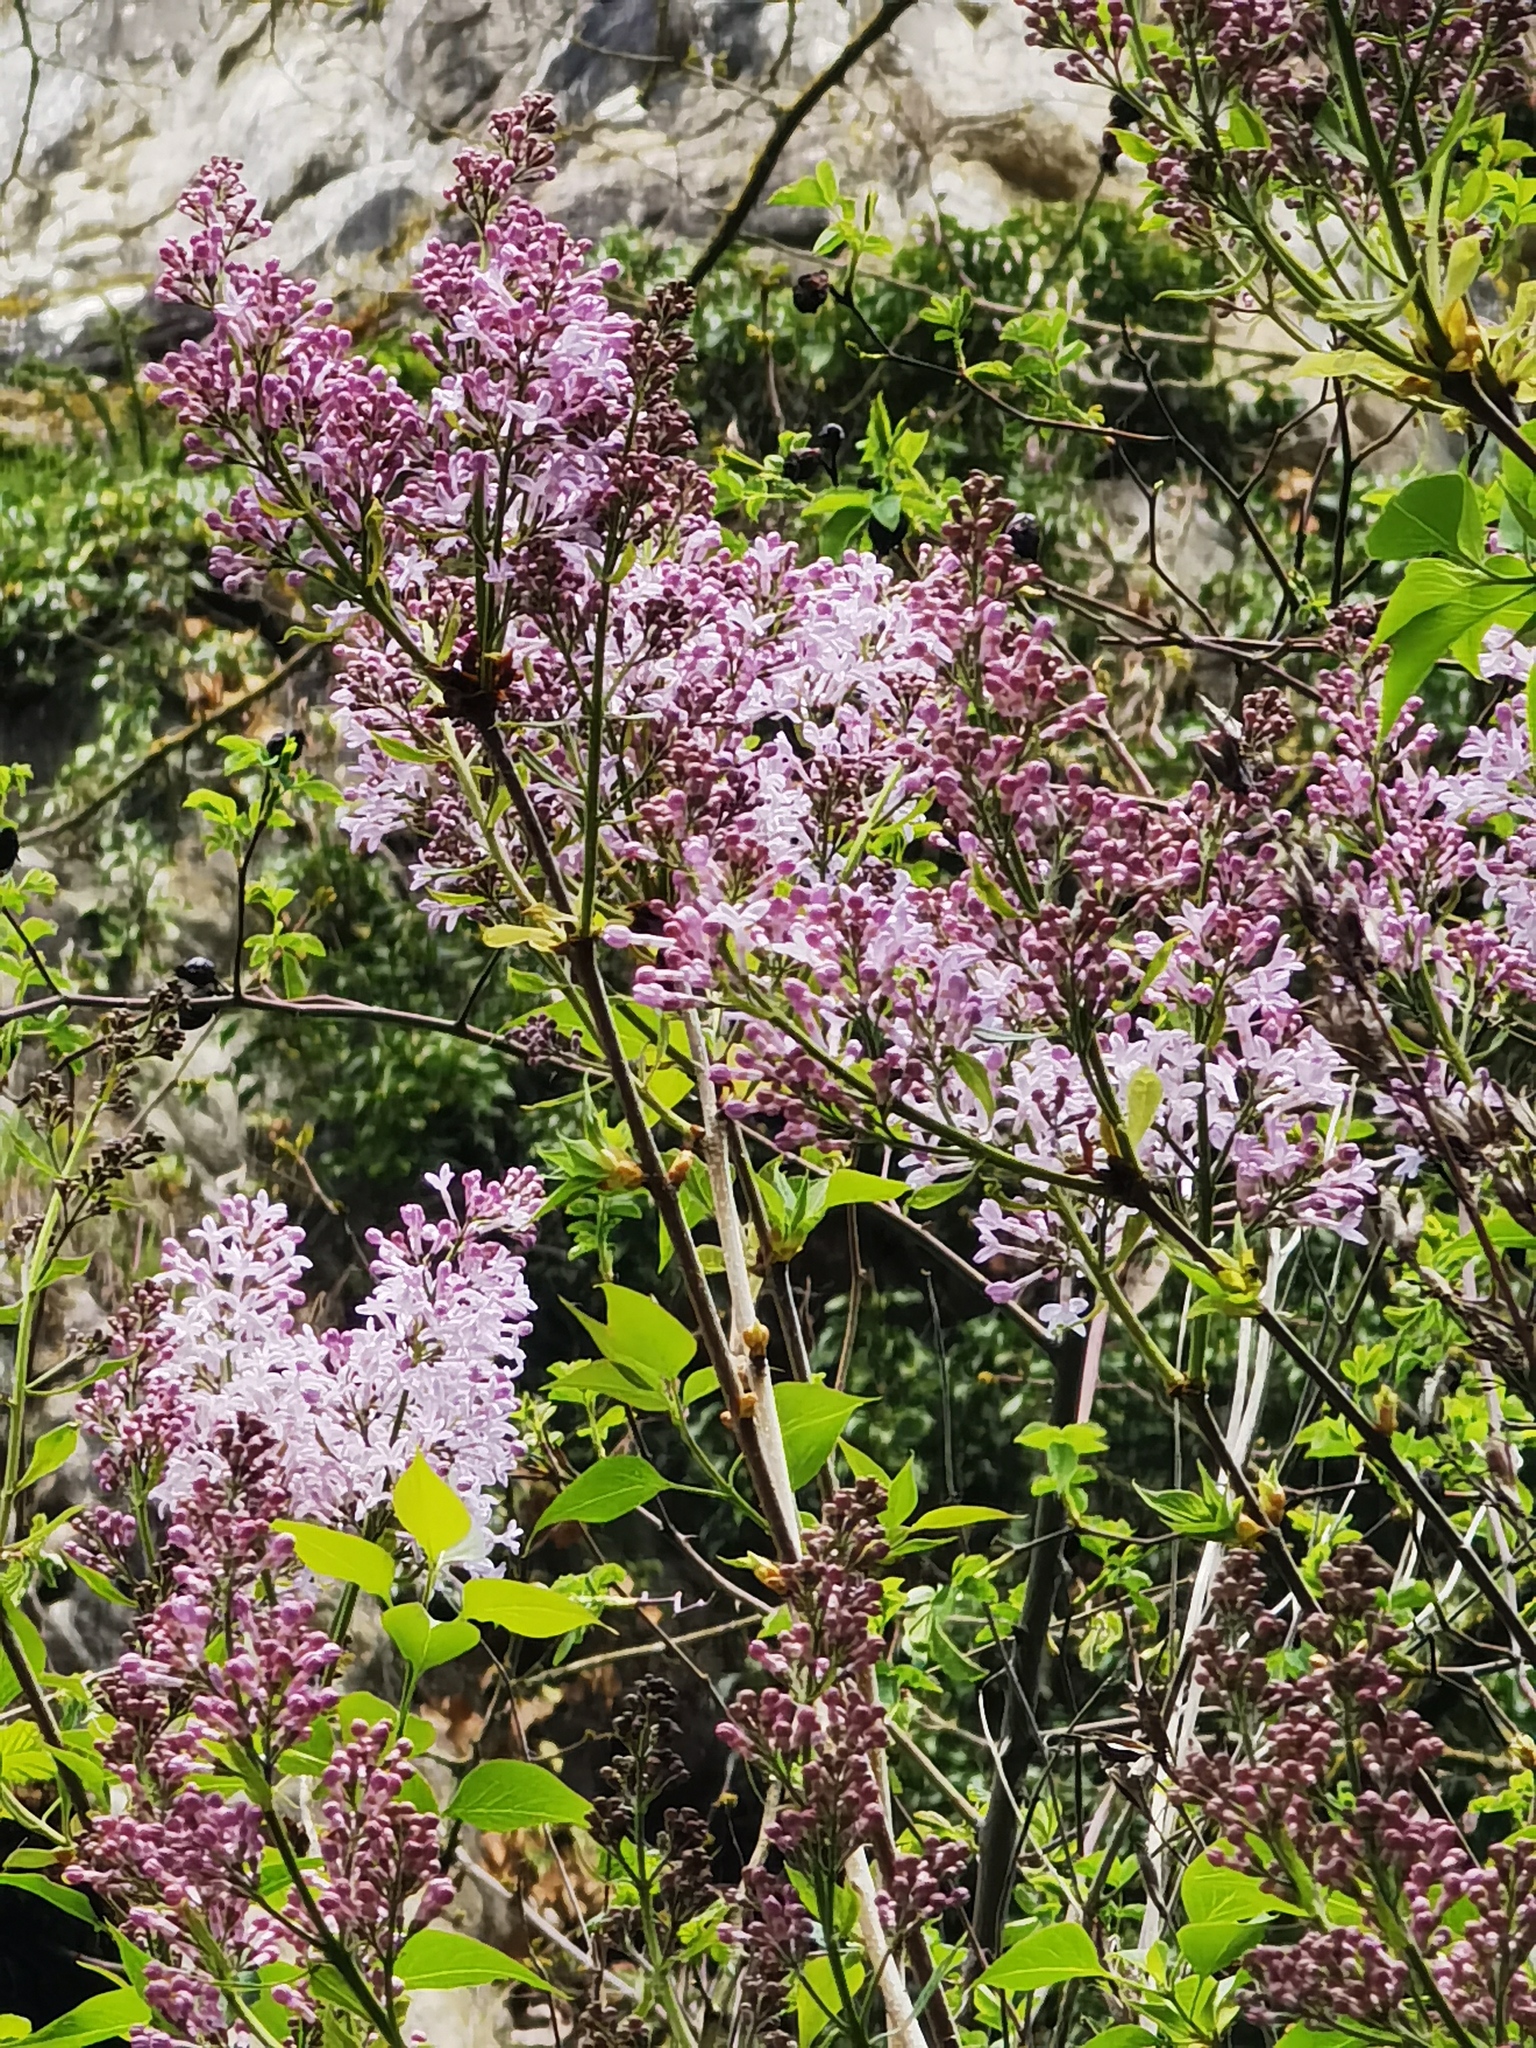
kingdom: Plantae
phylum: Tracheophyta
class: Magnoliopsida
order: Lamiales
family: Oleaceae
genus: Syringa
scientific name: Syringa vulgaris
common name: Common lilac
